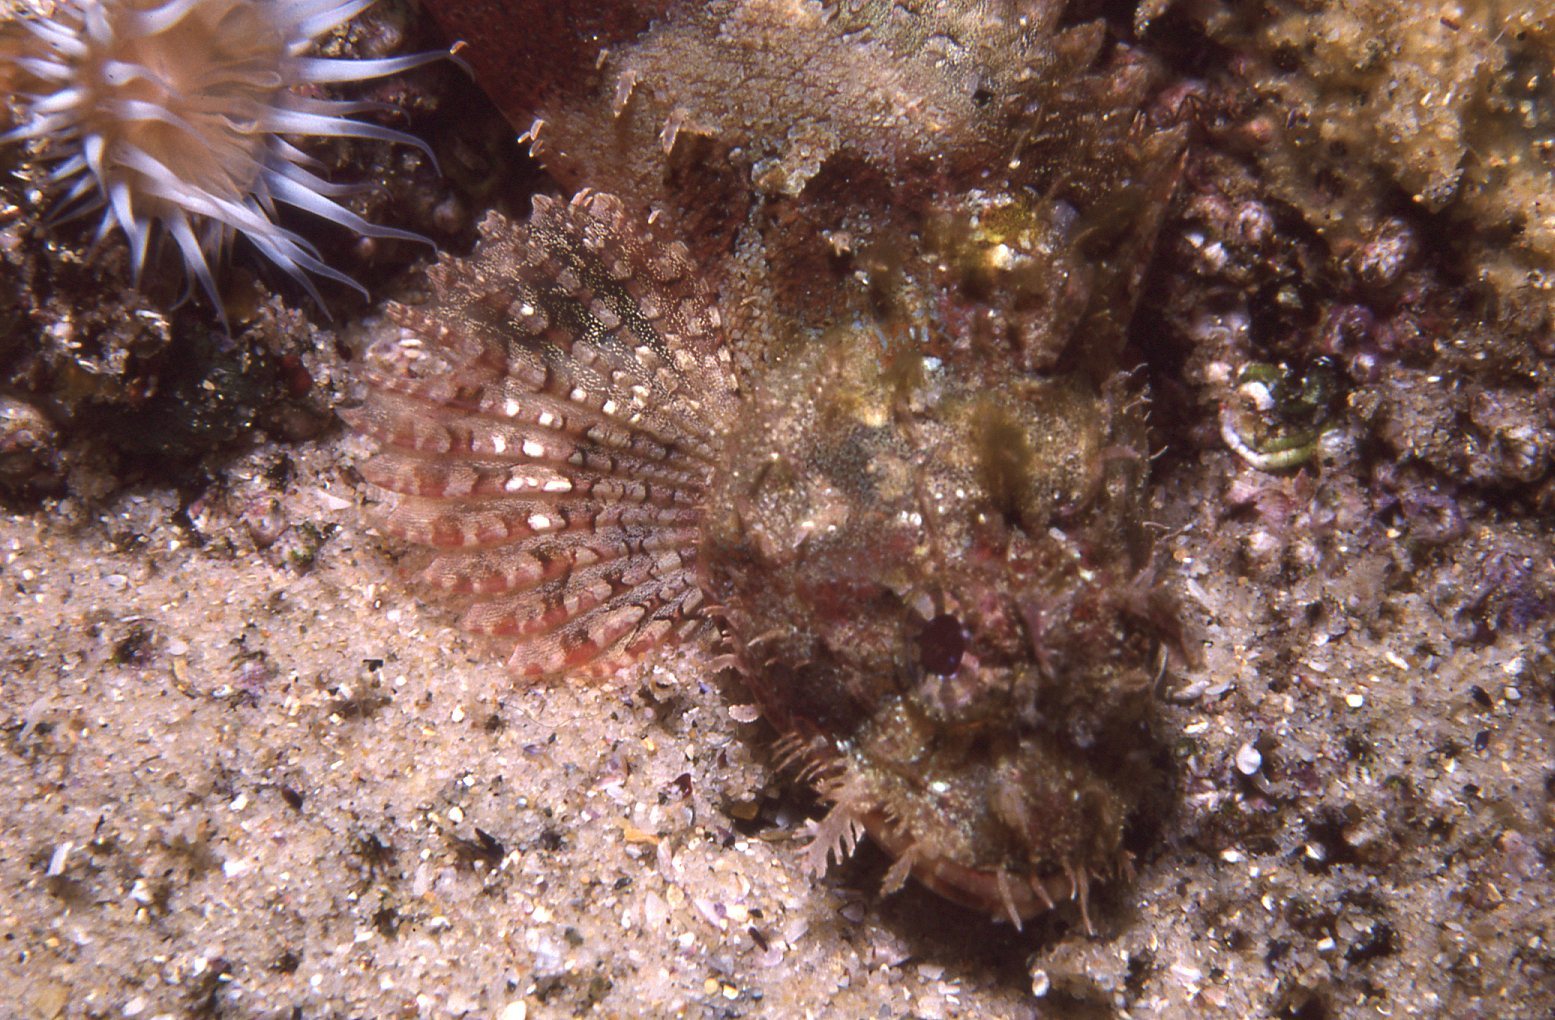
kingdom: Animalia
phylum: Chordata
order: Scorpaeniformes
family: Scorpaenidae
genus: Scorpaena
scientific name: Scorpaena jacksoniensis
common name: Eastern red scorpionfish
